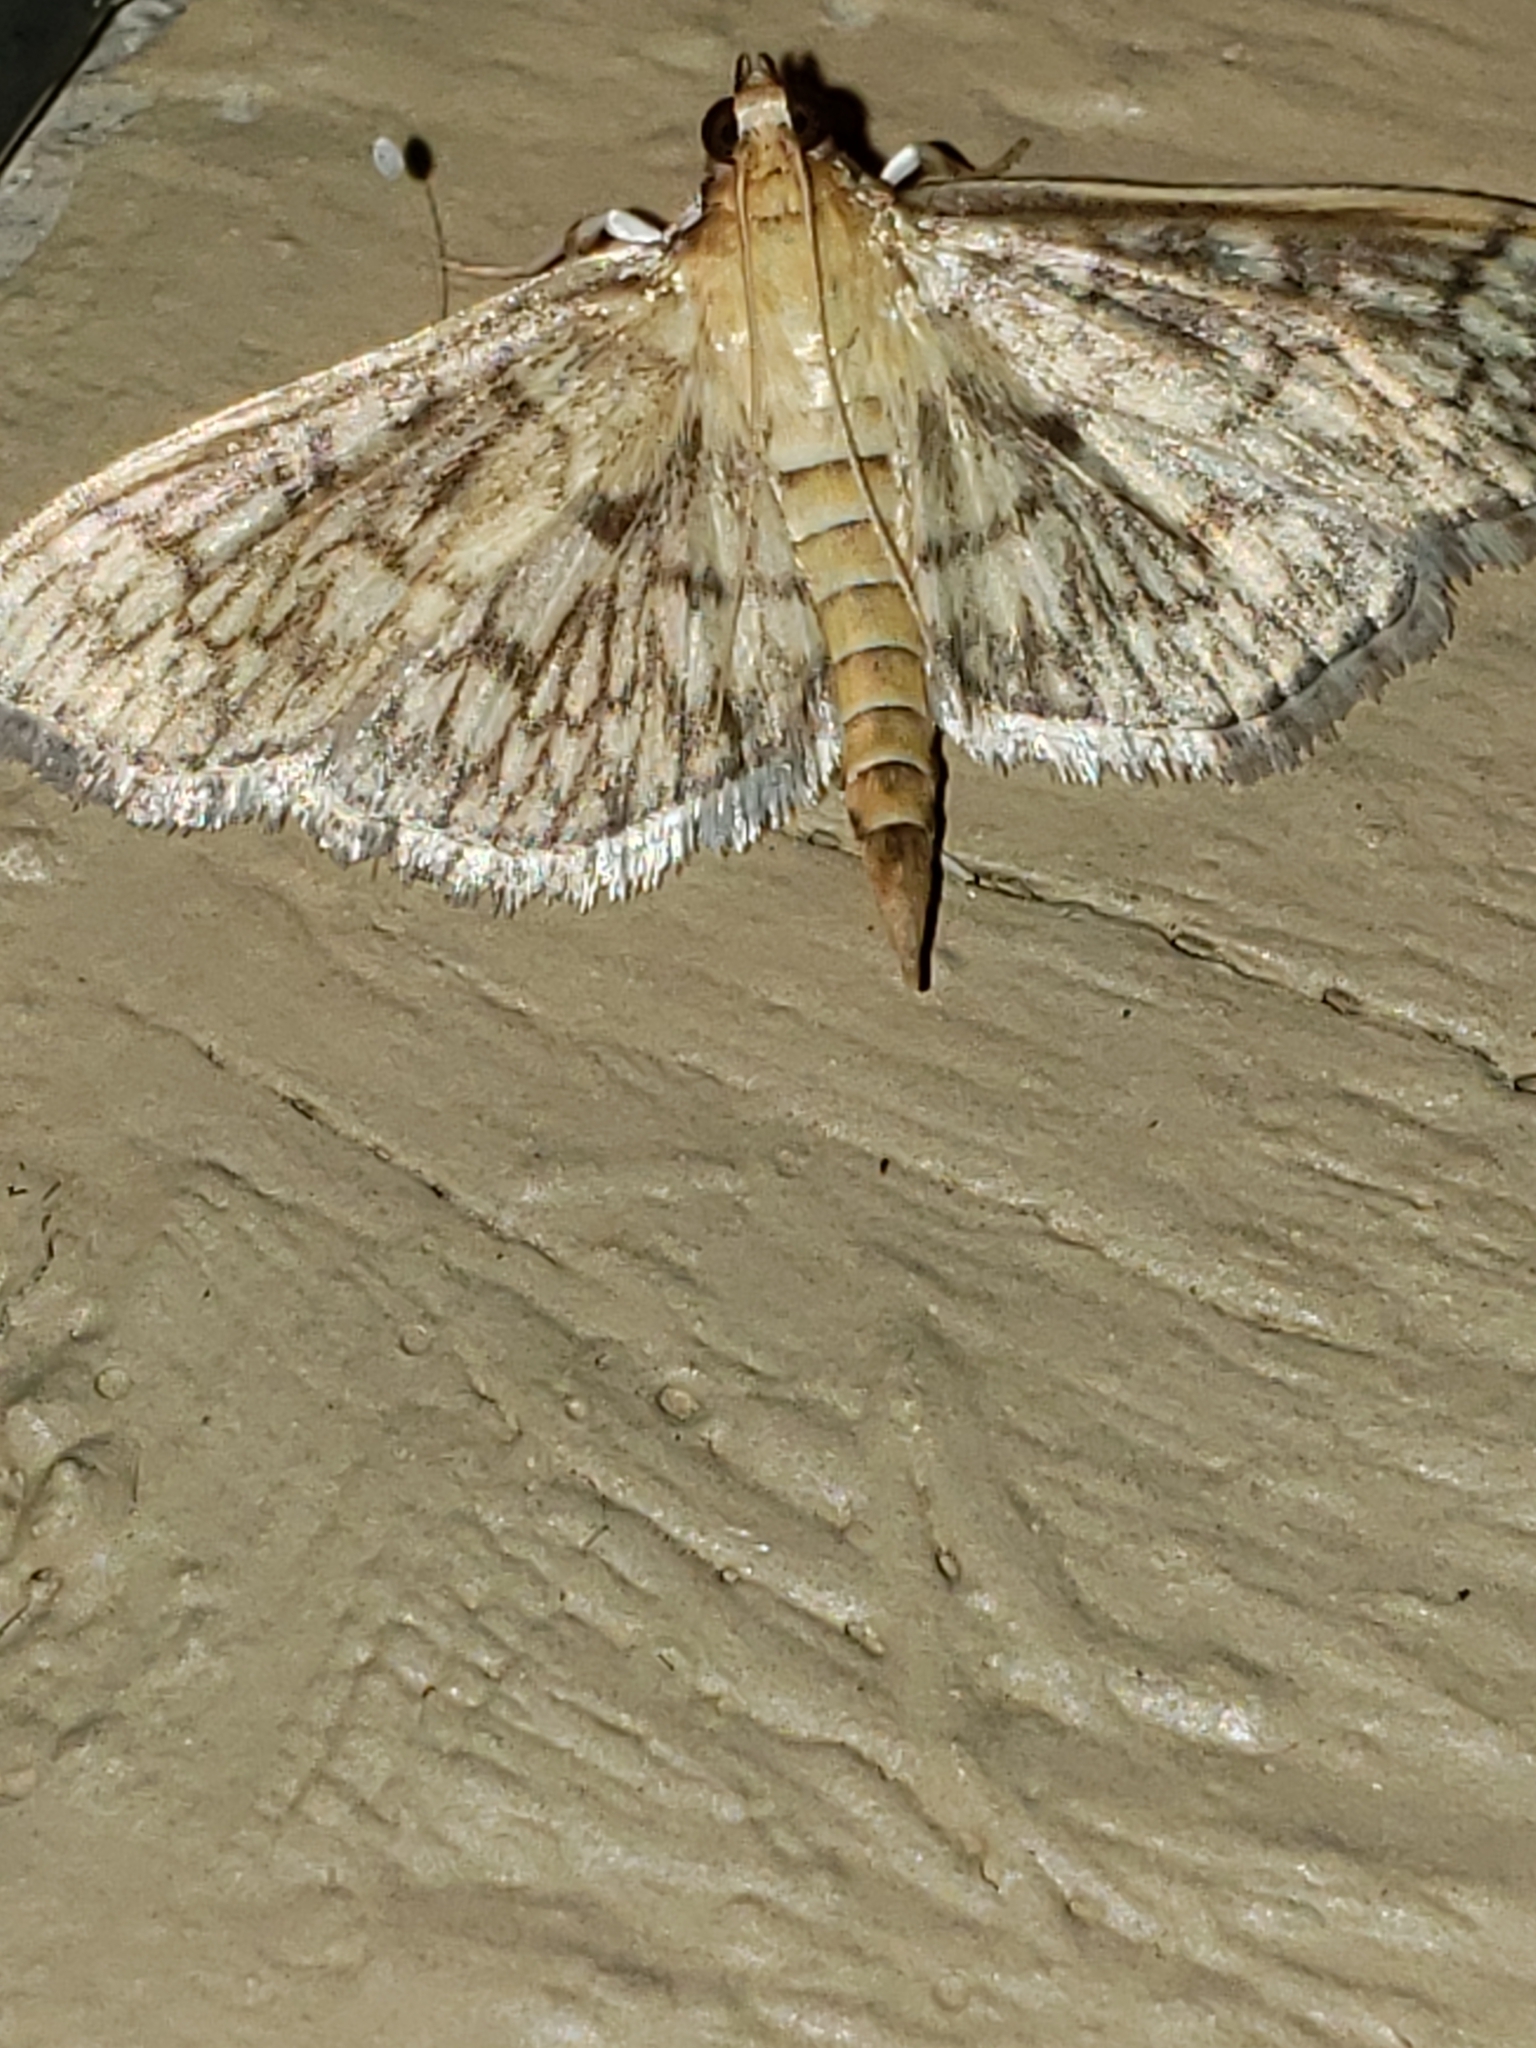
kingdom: Animalia
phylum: Arthropoda
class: Insecta
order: Lepidoptera
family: Crambidae
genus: Herpetogramma
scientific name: Herpetogramma pertextalis
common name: Bold-feathered grass moth
